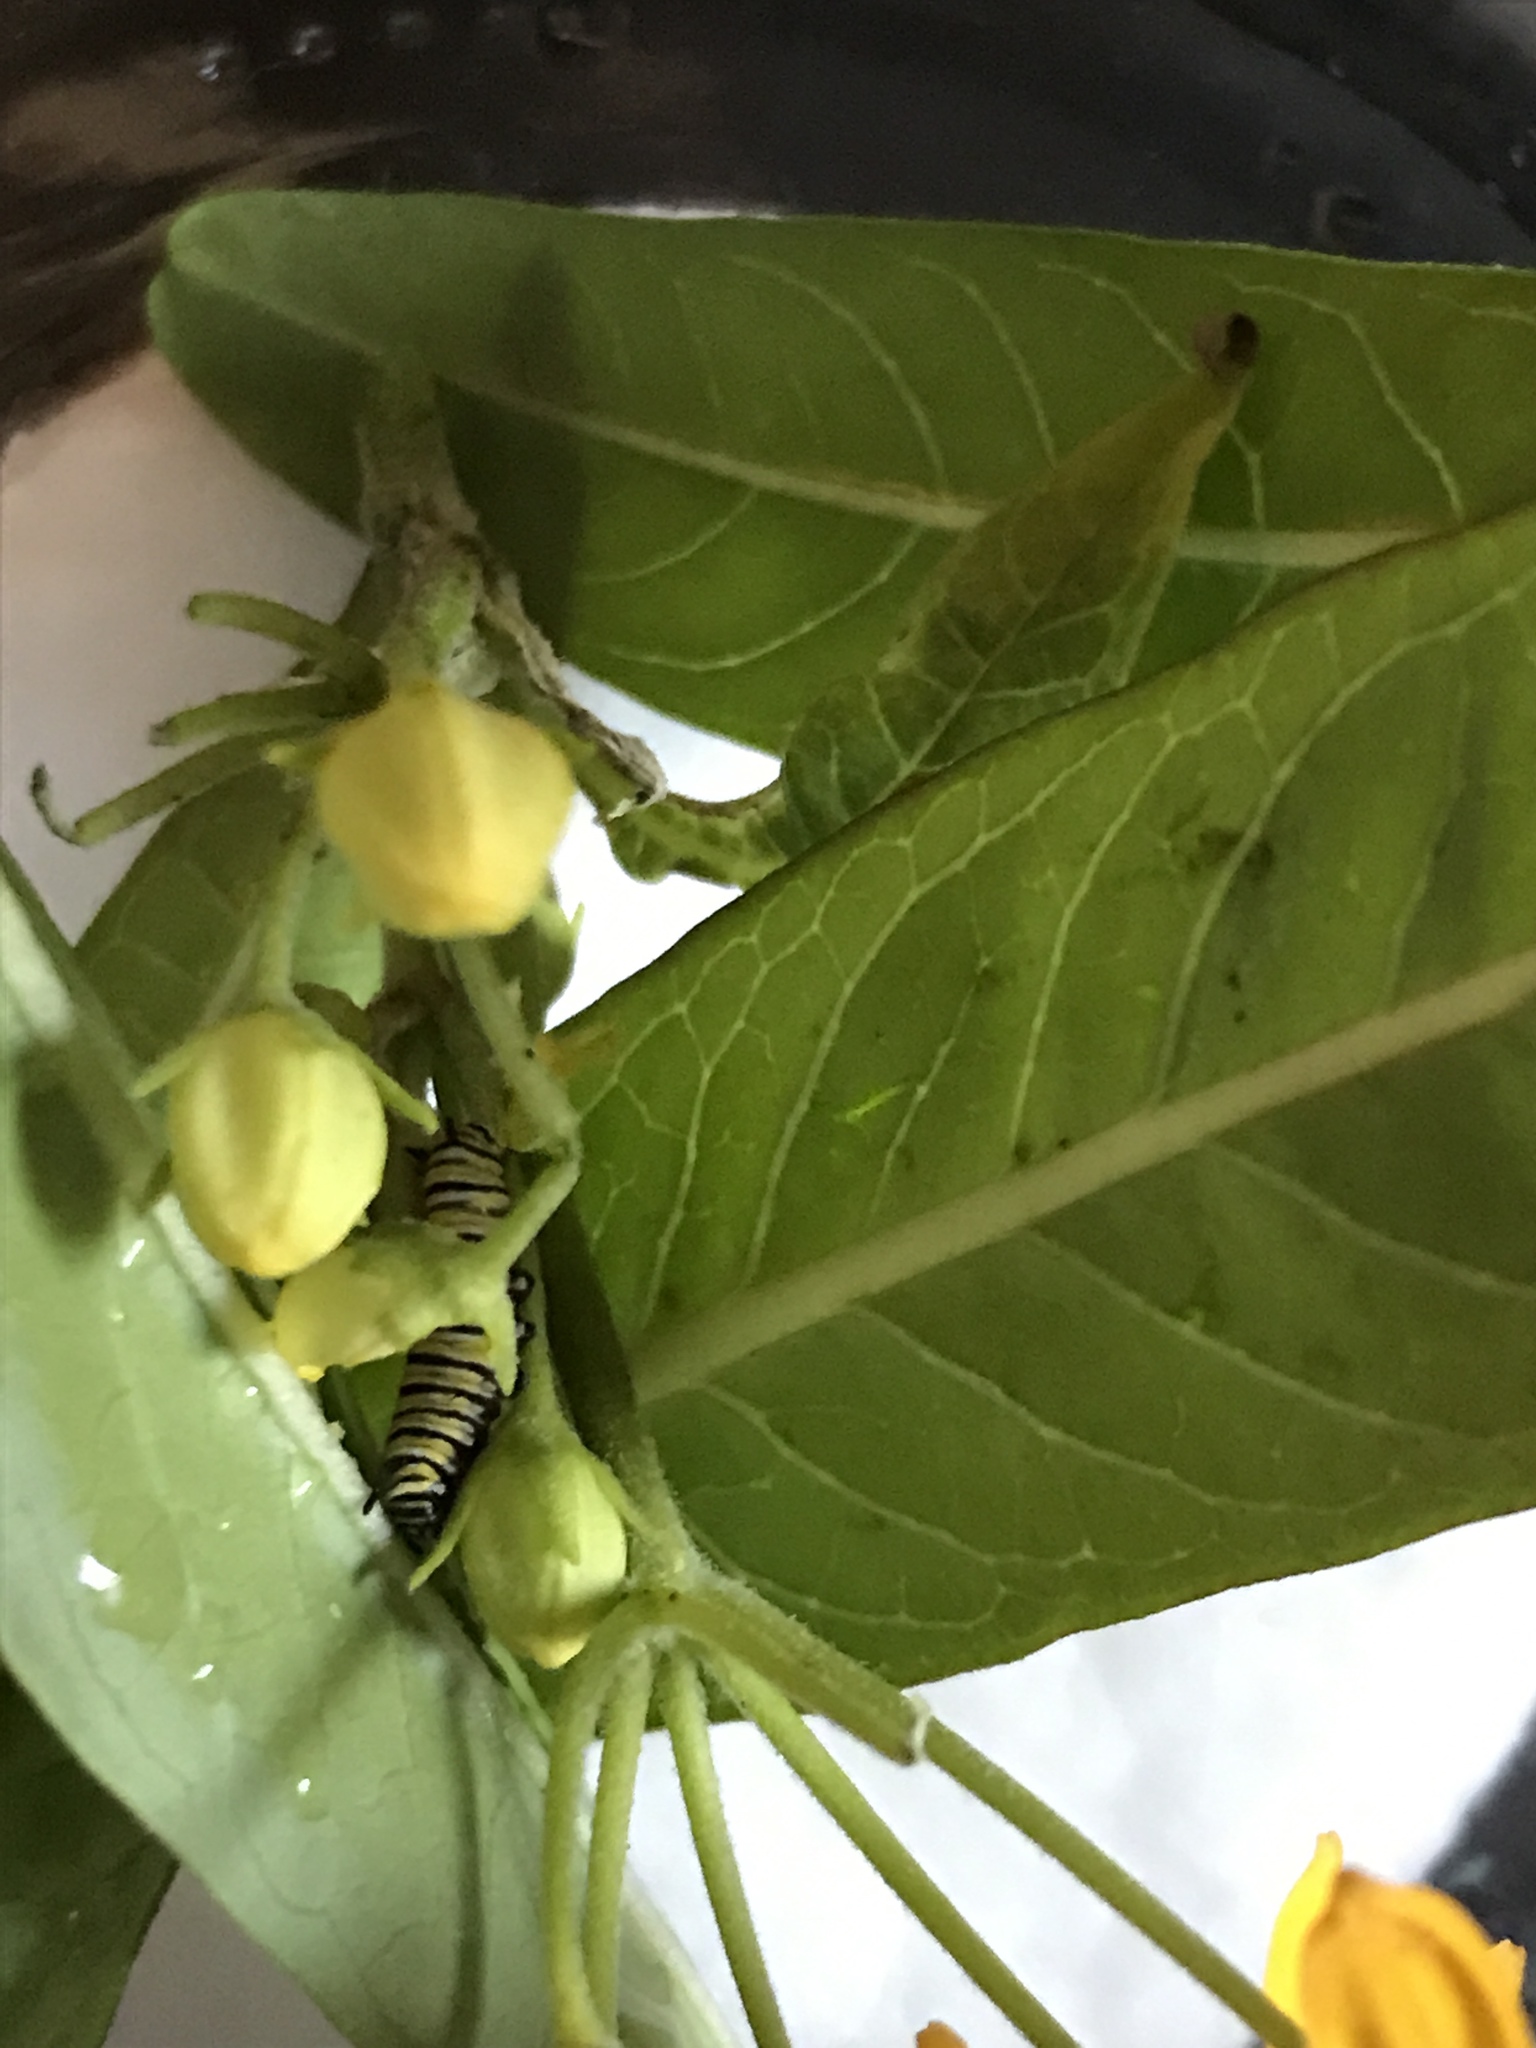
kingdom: Animalia
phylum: Arthropoda
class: Insecta
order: Lepidoptera
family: Nymphalidae
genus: Danaus
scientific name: Danaus plexippus
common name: Monarch
